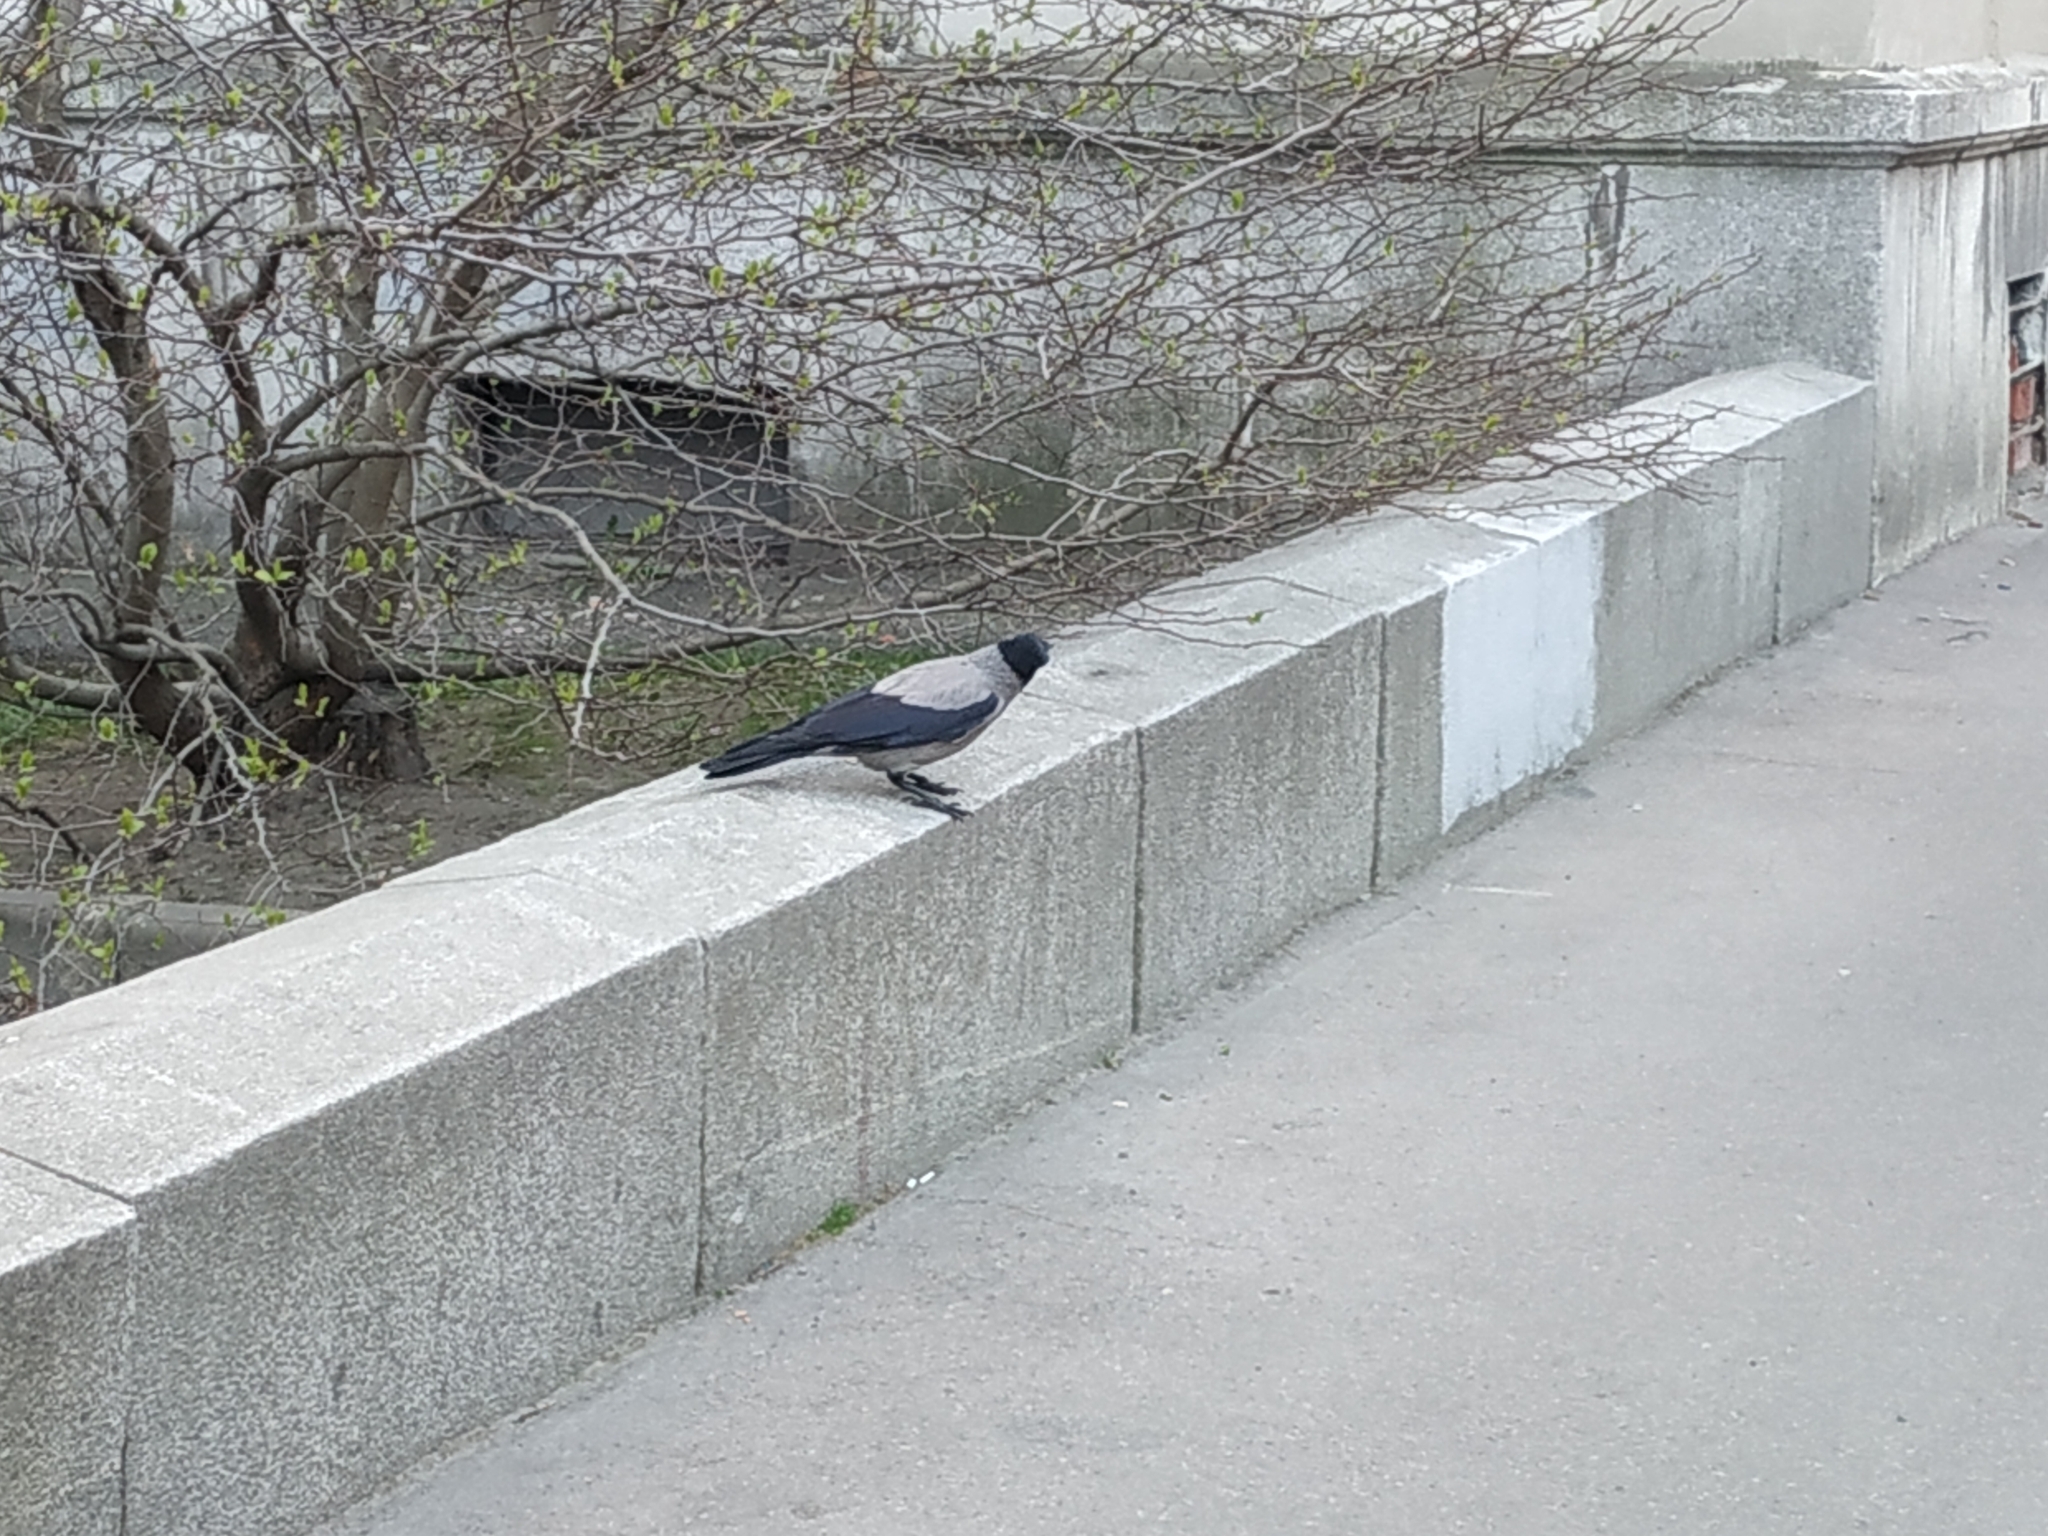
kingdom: Animalia
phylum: Chordata
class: Aves
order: Passeriformes
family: Corvidae
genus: Corvus
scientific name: Corvus cornix
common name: Hooded crow
